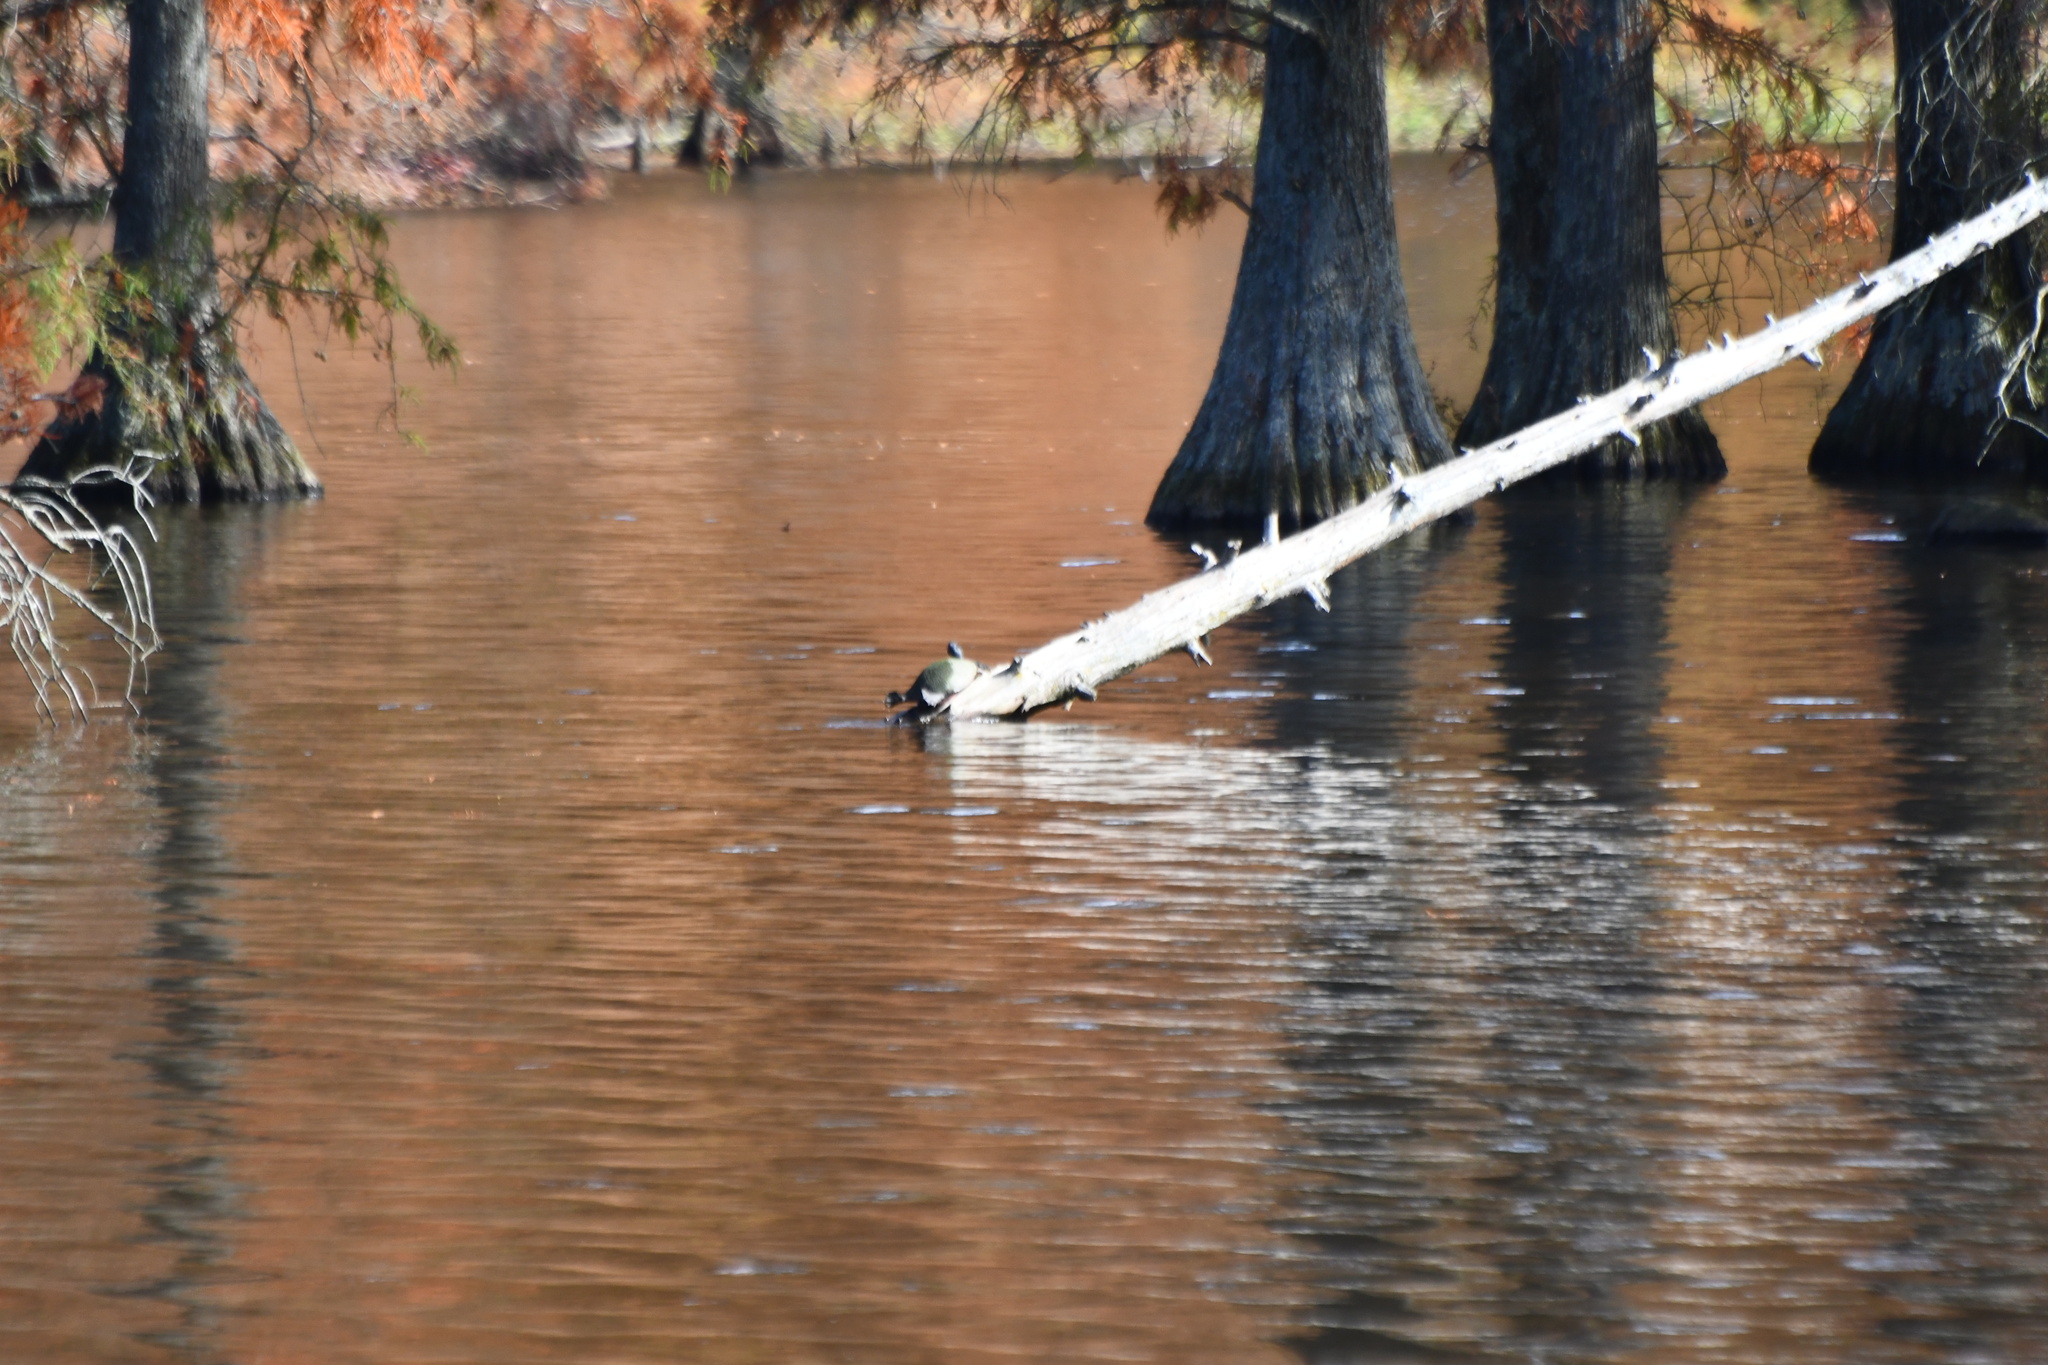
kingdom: Animalia
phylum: Chordata
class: Testudines
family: Emydidae
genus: Pseudemys
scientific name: Pseudemys rubriventris
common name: American red-bellied turtle
